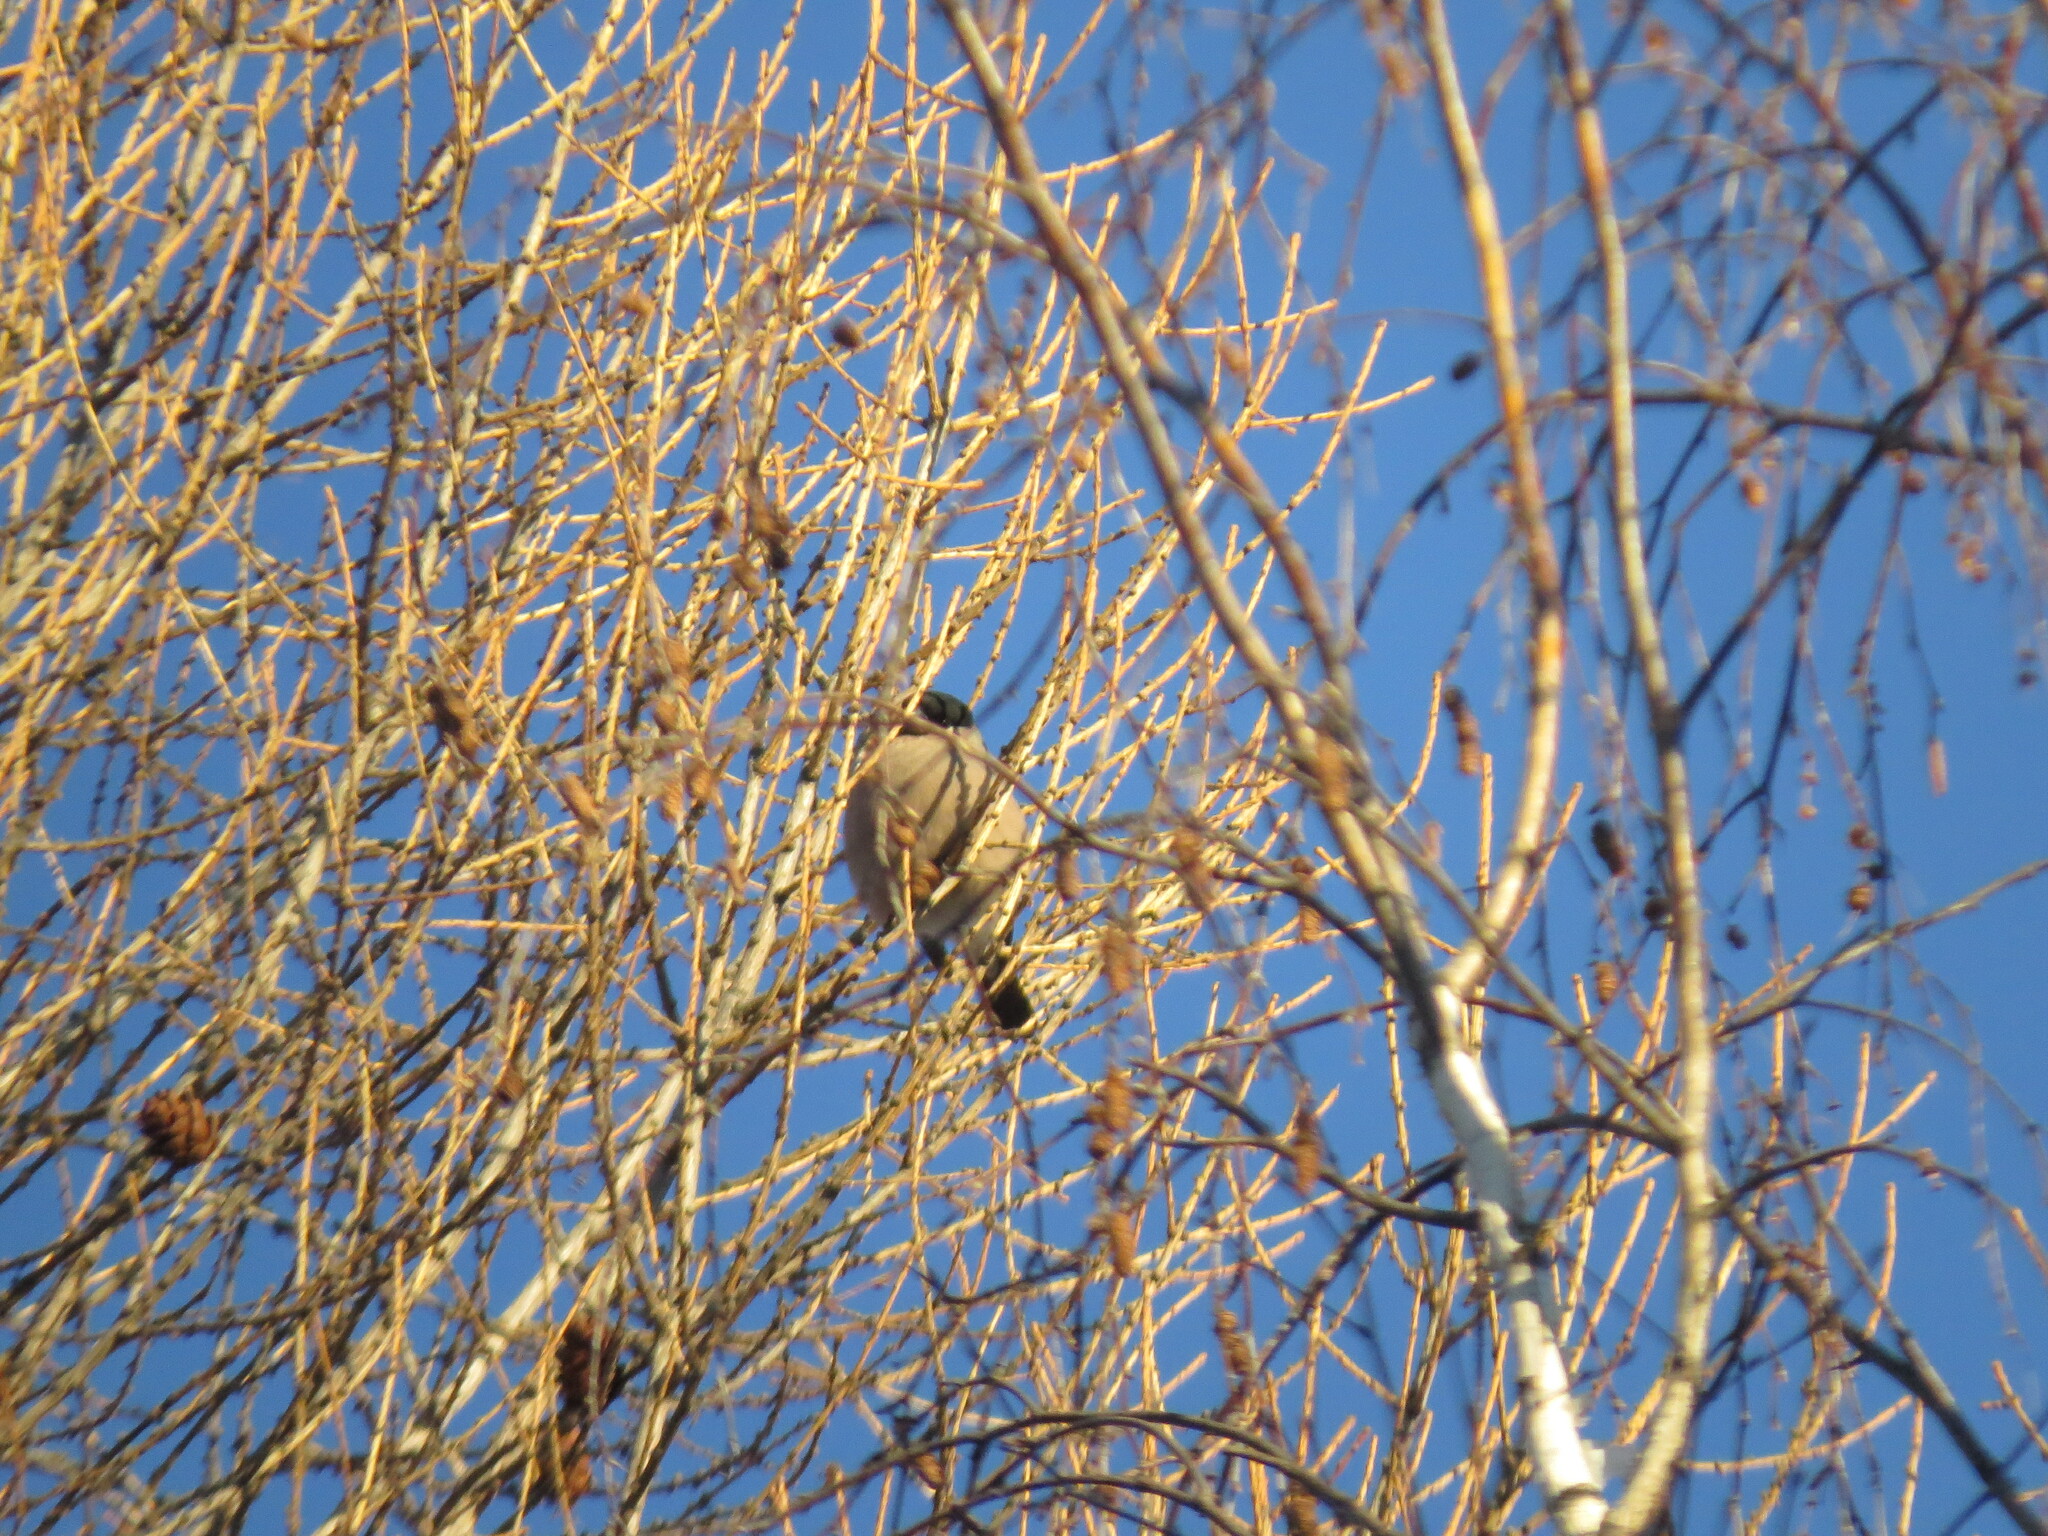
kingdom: Animalia
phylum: Chordata
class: Aves
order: Passeriformes
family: Fringillidae
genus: Pyrrhula
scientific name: Pyrrhula pyrrhula
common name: Eurasian bullfinch
